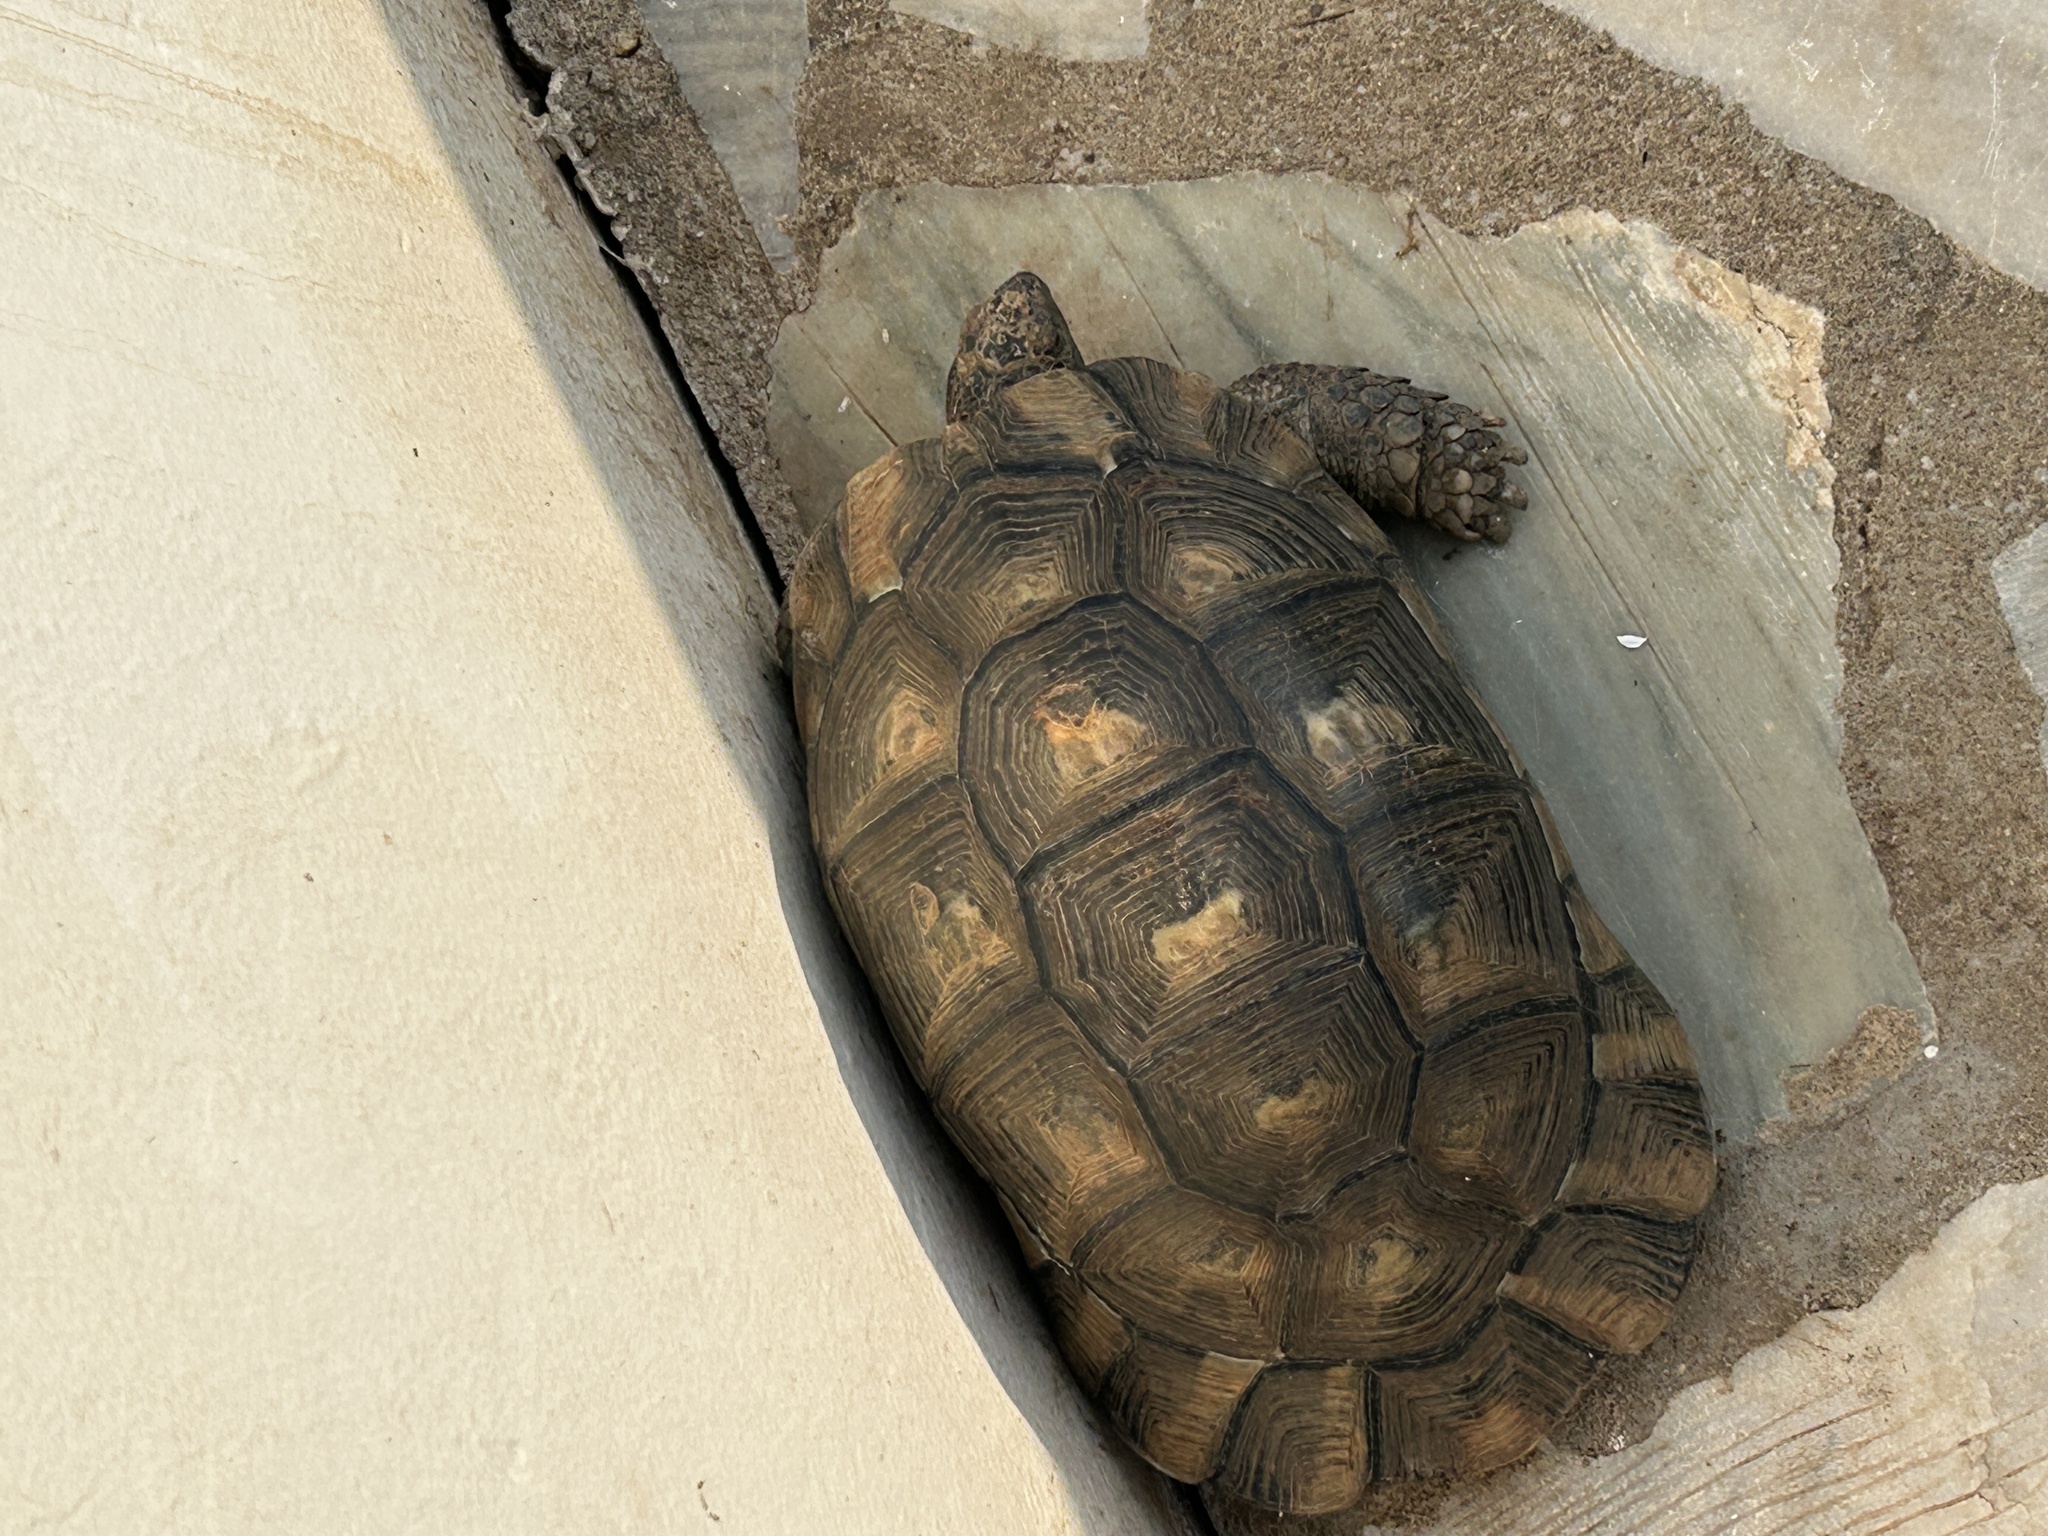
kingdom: Animalia
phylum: Chordata
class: Testudines
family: Testudinidae
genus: Testudo
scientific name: Testudo marginata
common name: Marginated tortoise
